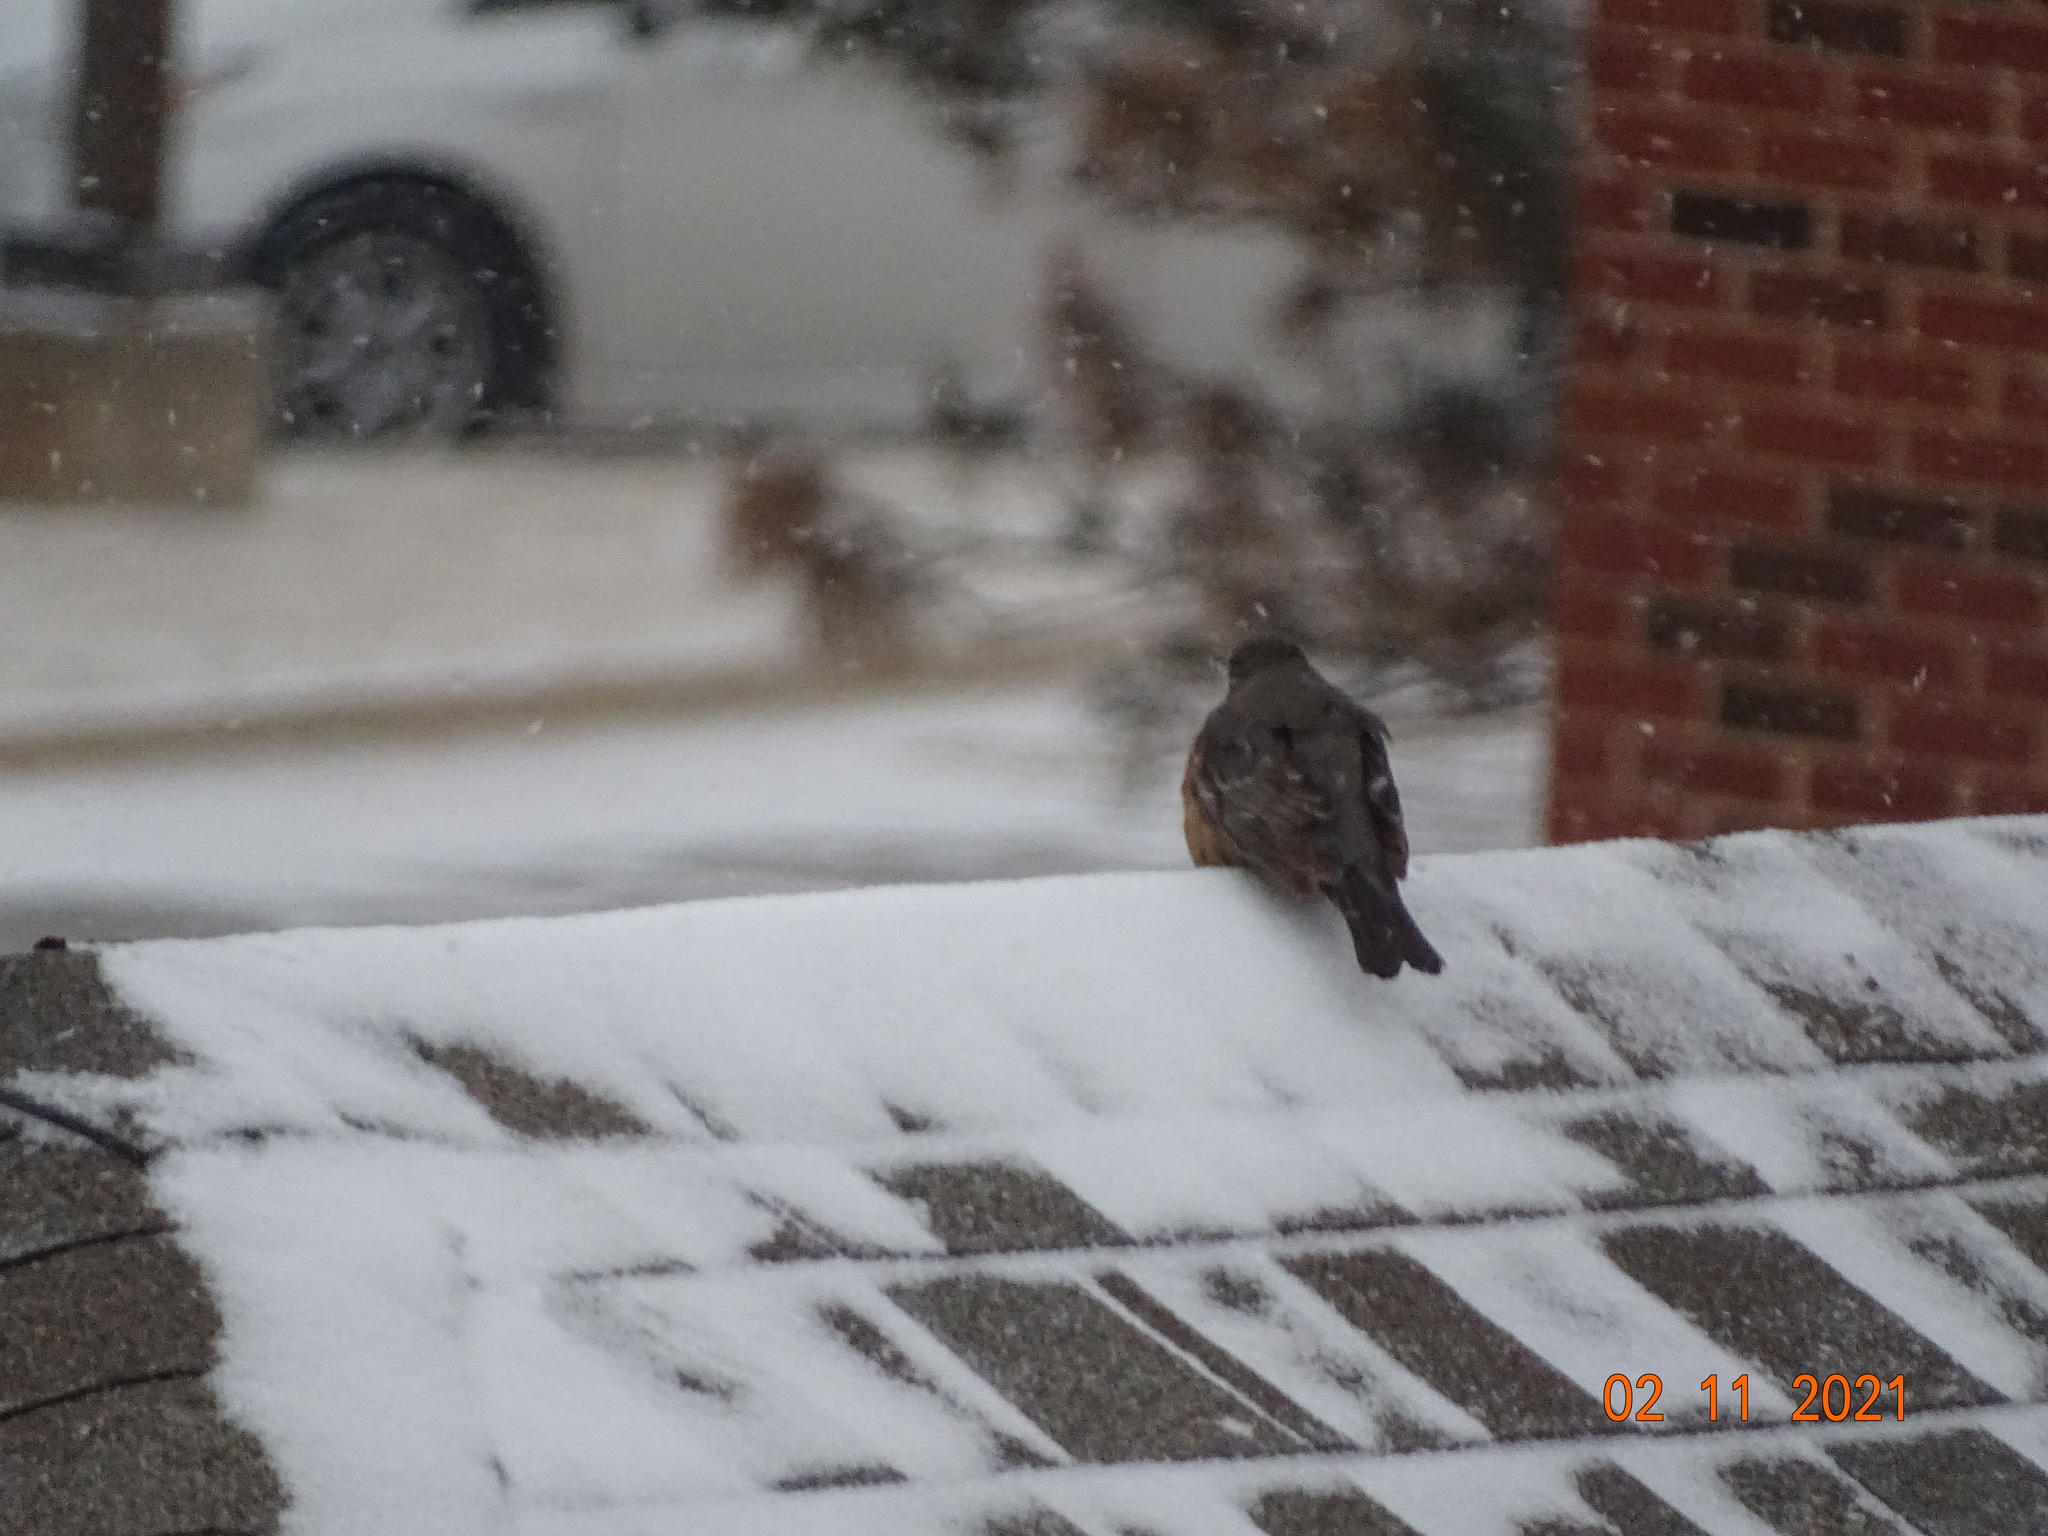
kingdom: Animalia
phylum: Chordata
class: Aves
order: Passeriformes
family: Turdidae
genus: Turdus
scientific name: Turdus migratorius
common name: American robin
